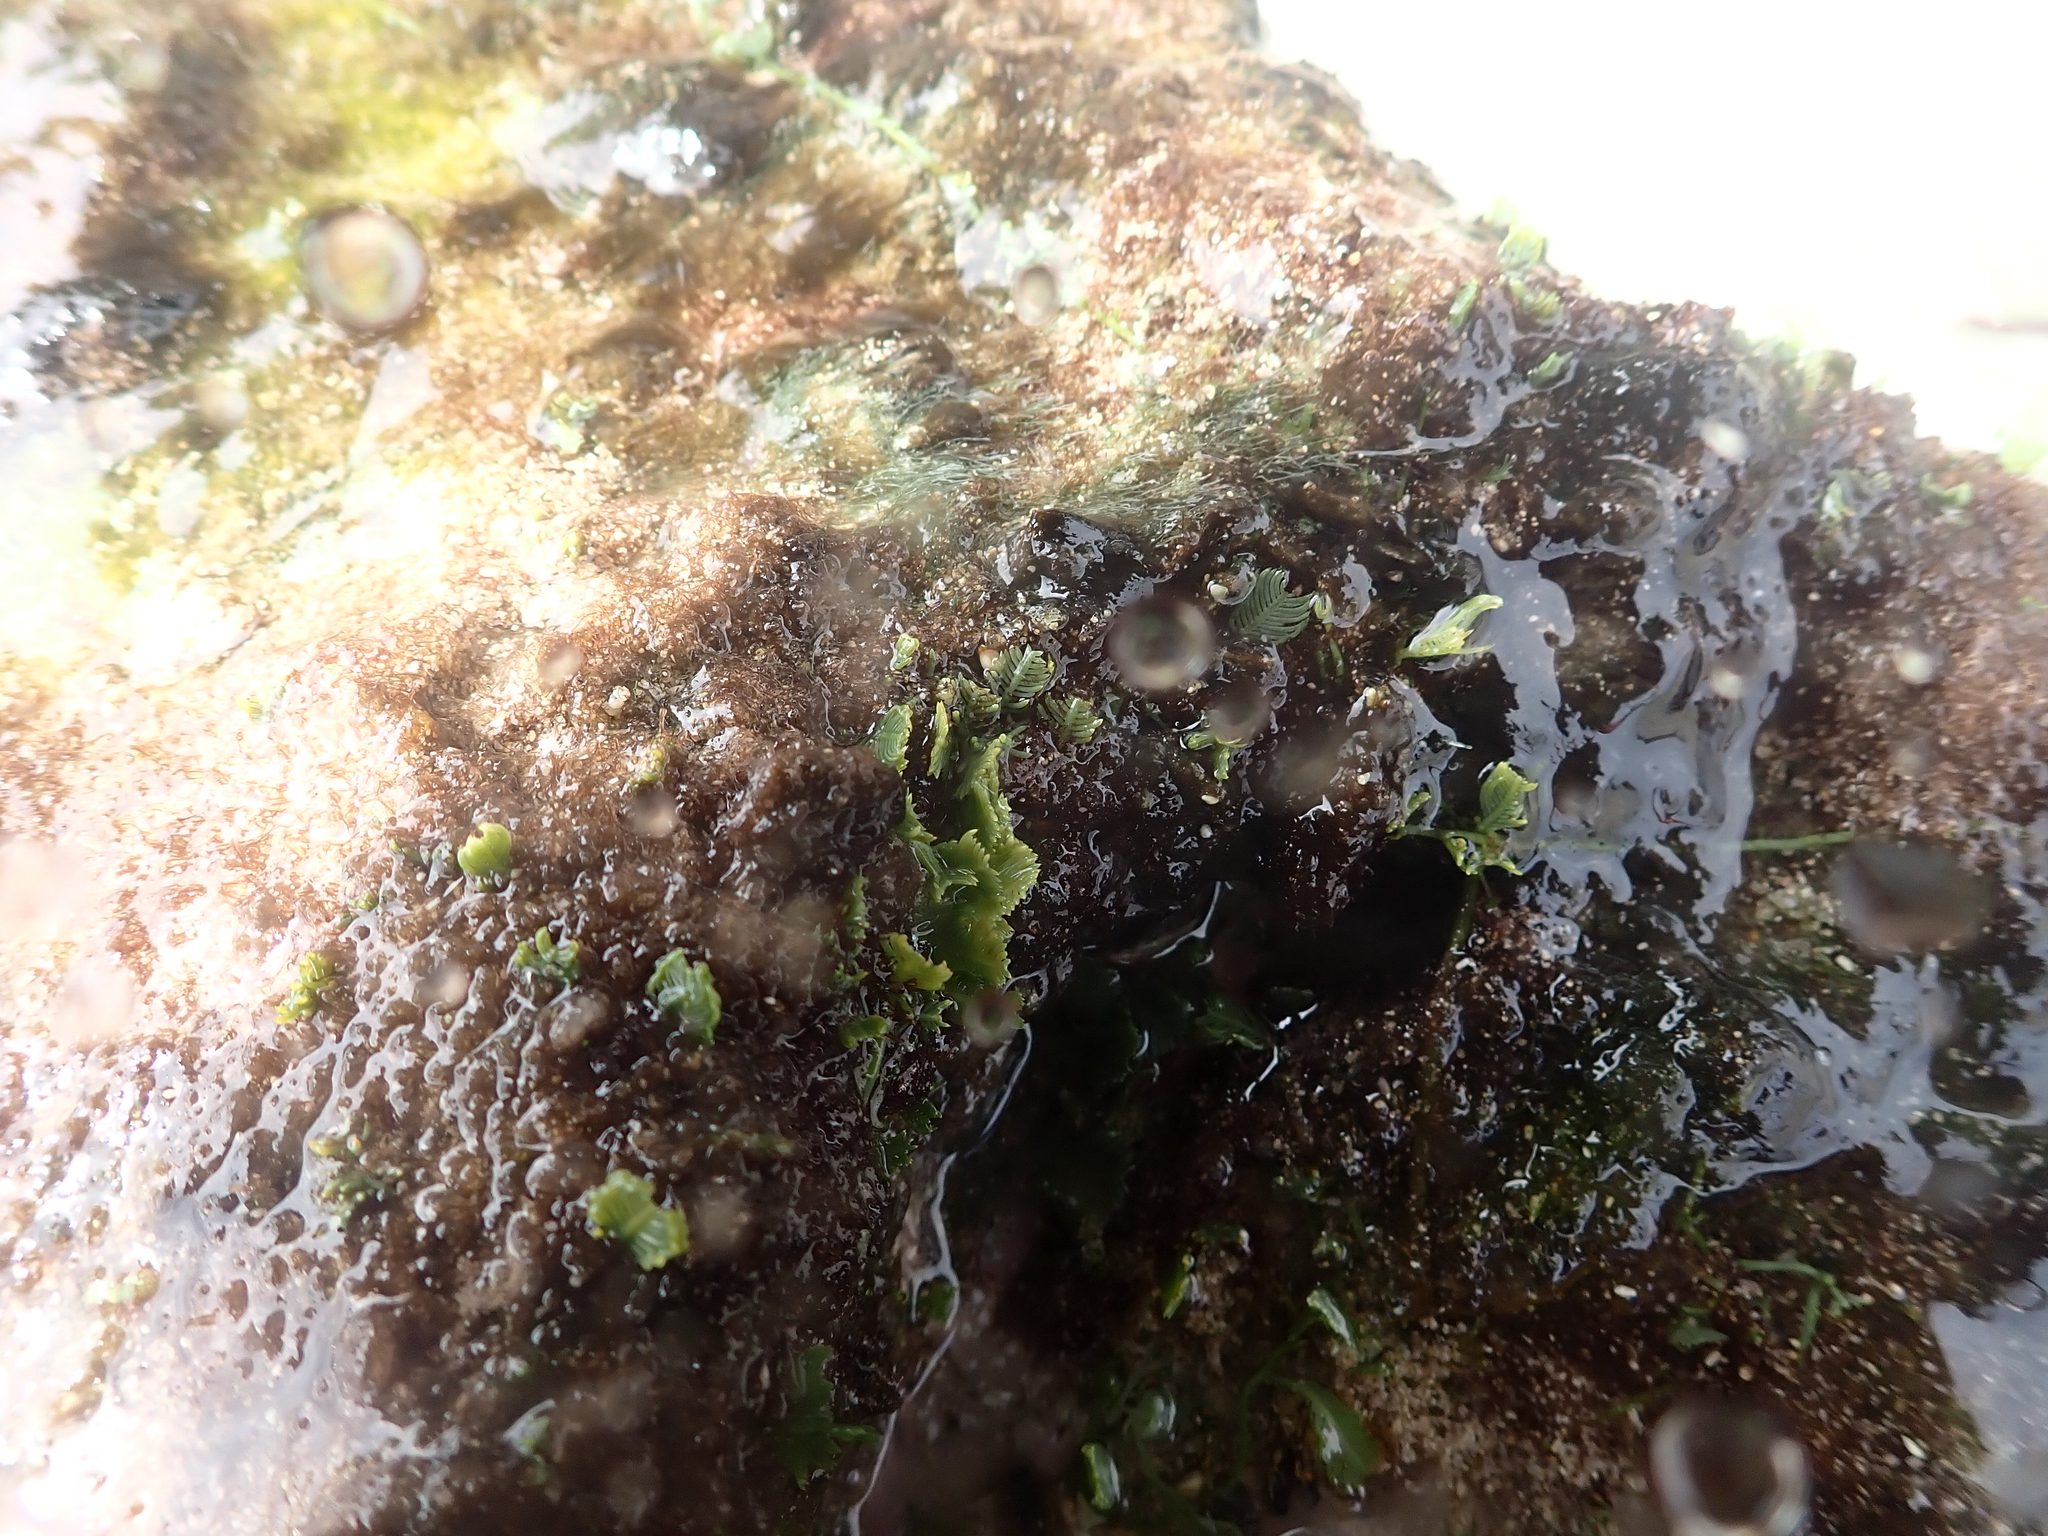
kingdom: Plantae
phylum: Chlorophyta
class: Ulvophyceae
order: Bryopsidales
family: Caulerpaceae
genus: Caulerpa
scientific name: Caulerpa sertularioides
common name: Green feather algae
